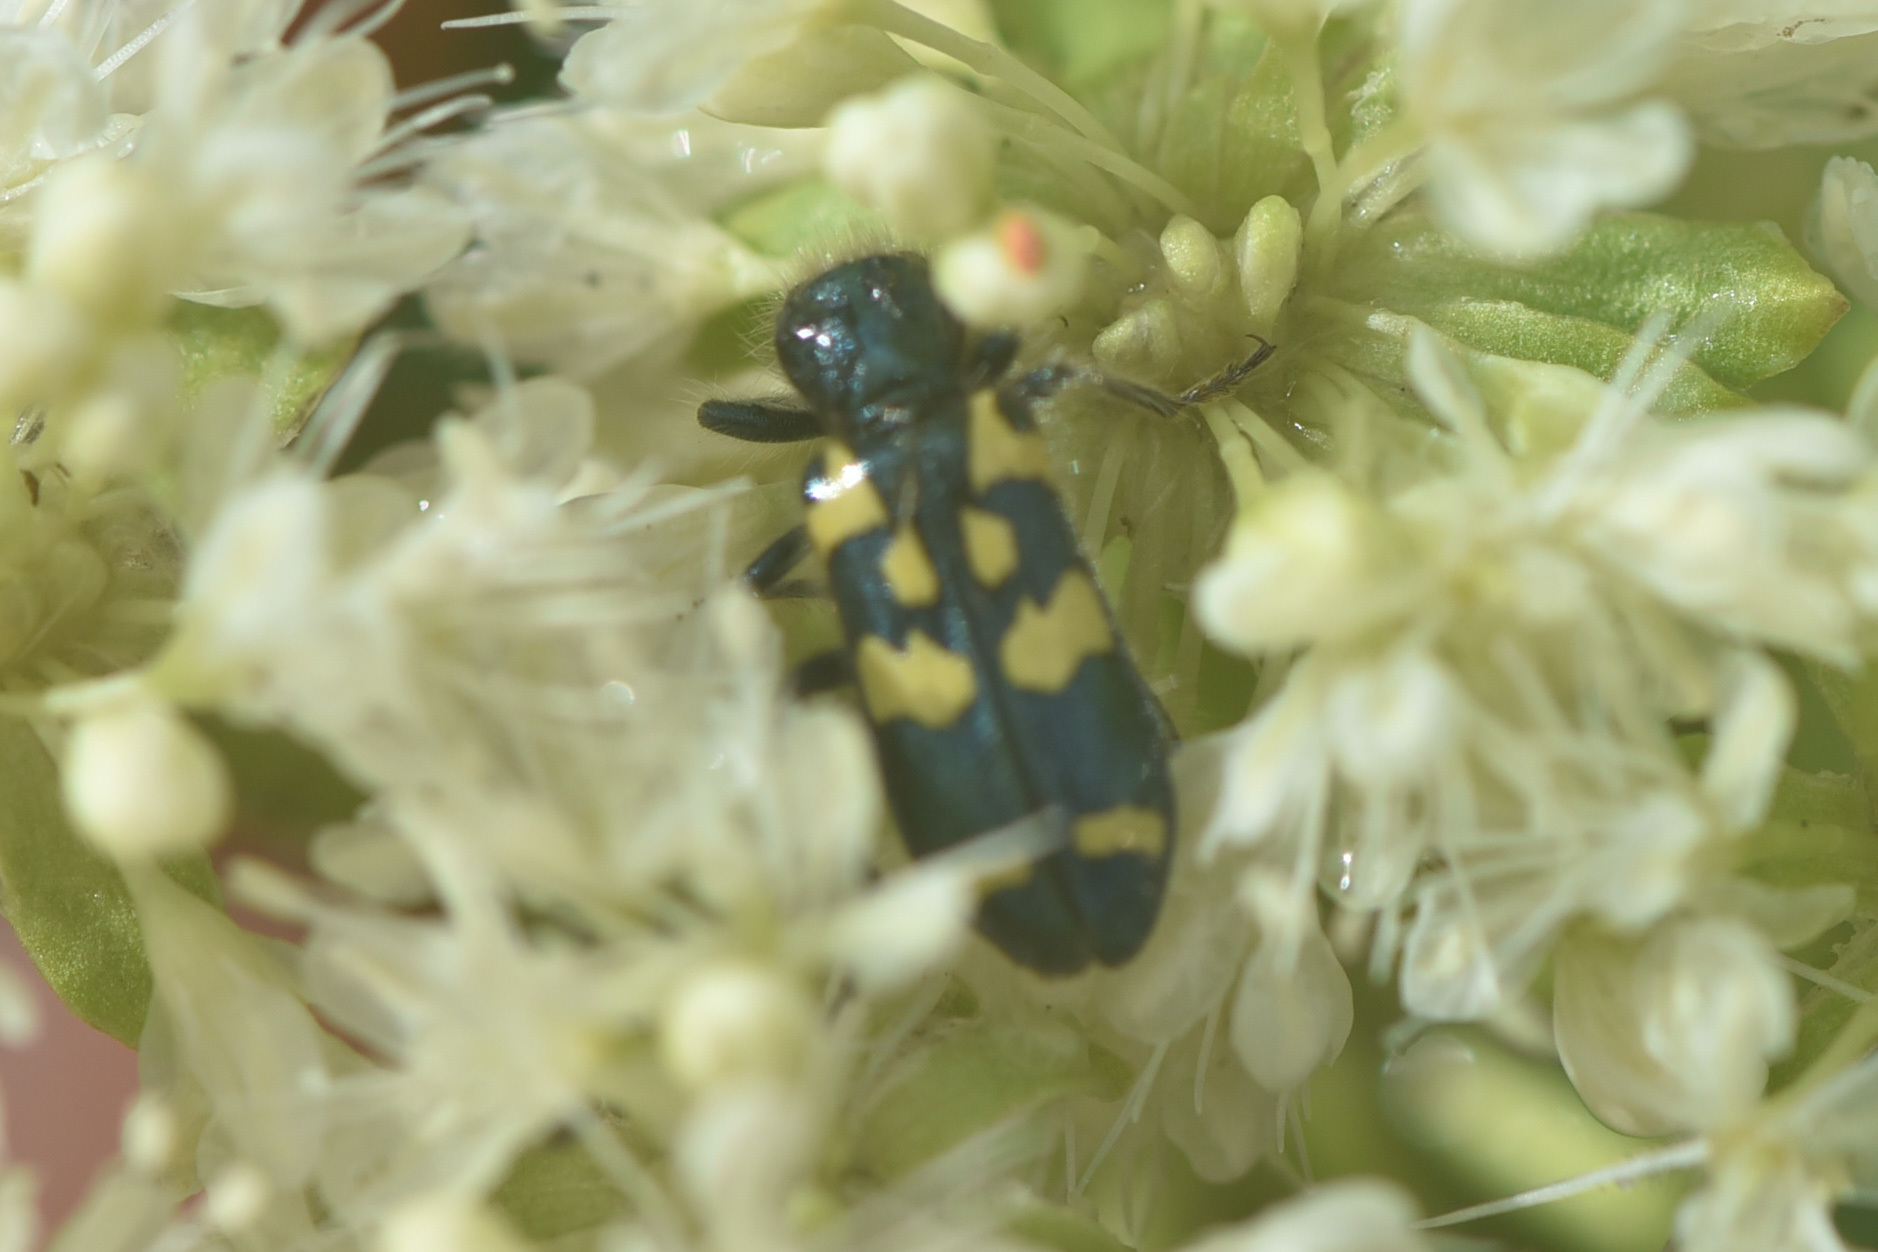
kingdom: Animalia
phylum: Arthropoda
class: Insecta
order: Coleoptera
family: Cleridae
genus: Trichodes
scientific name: Trichodes ornatus
